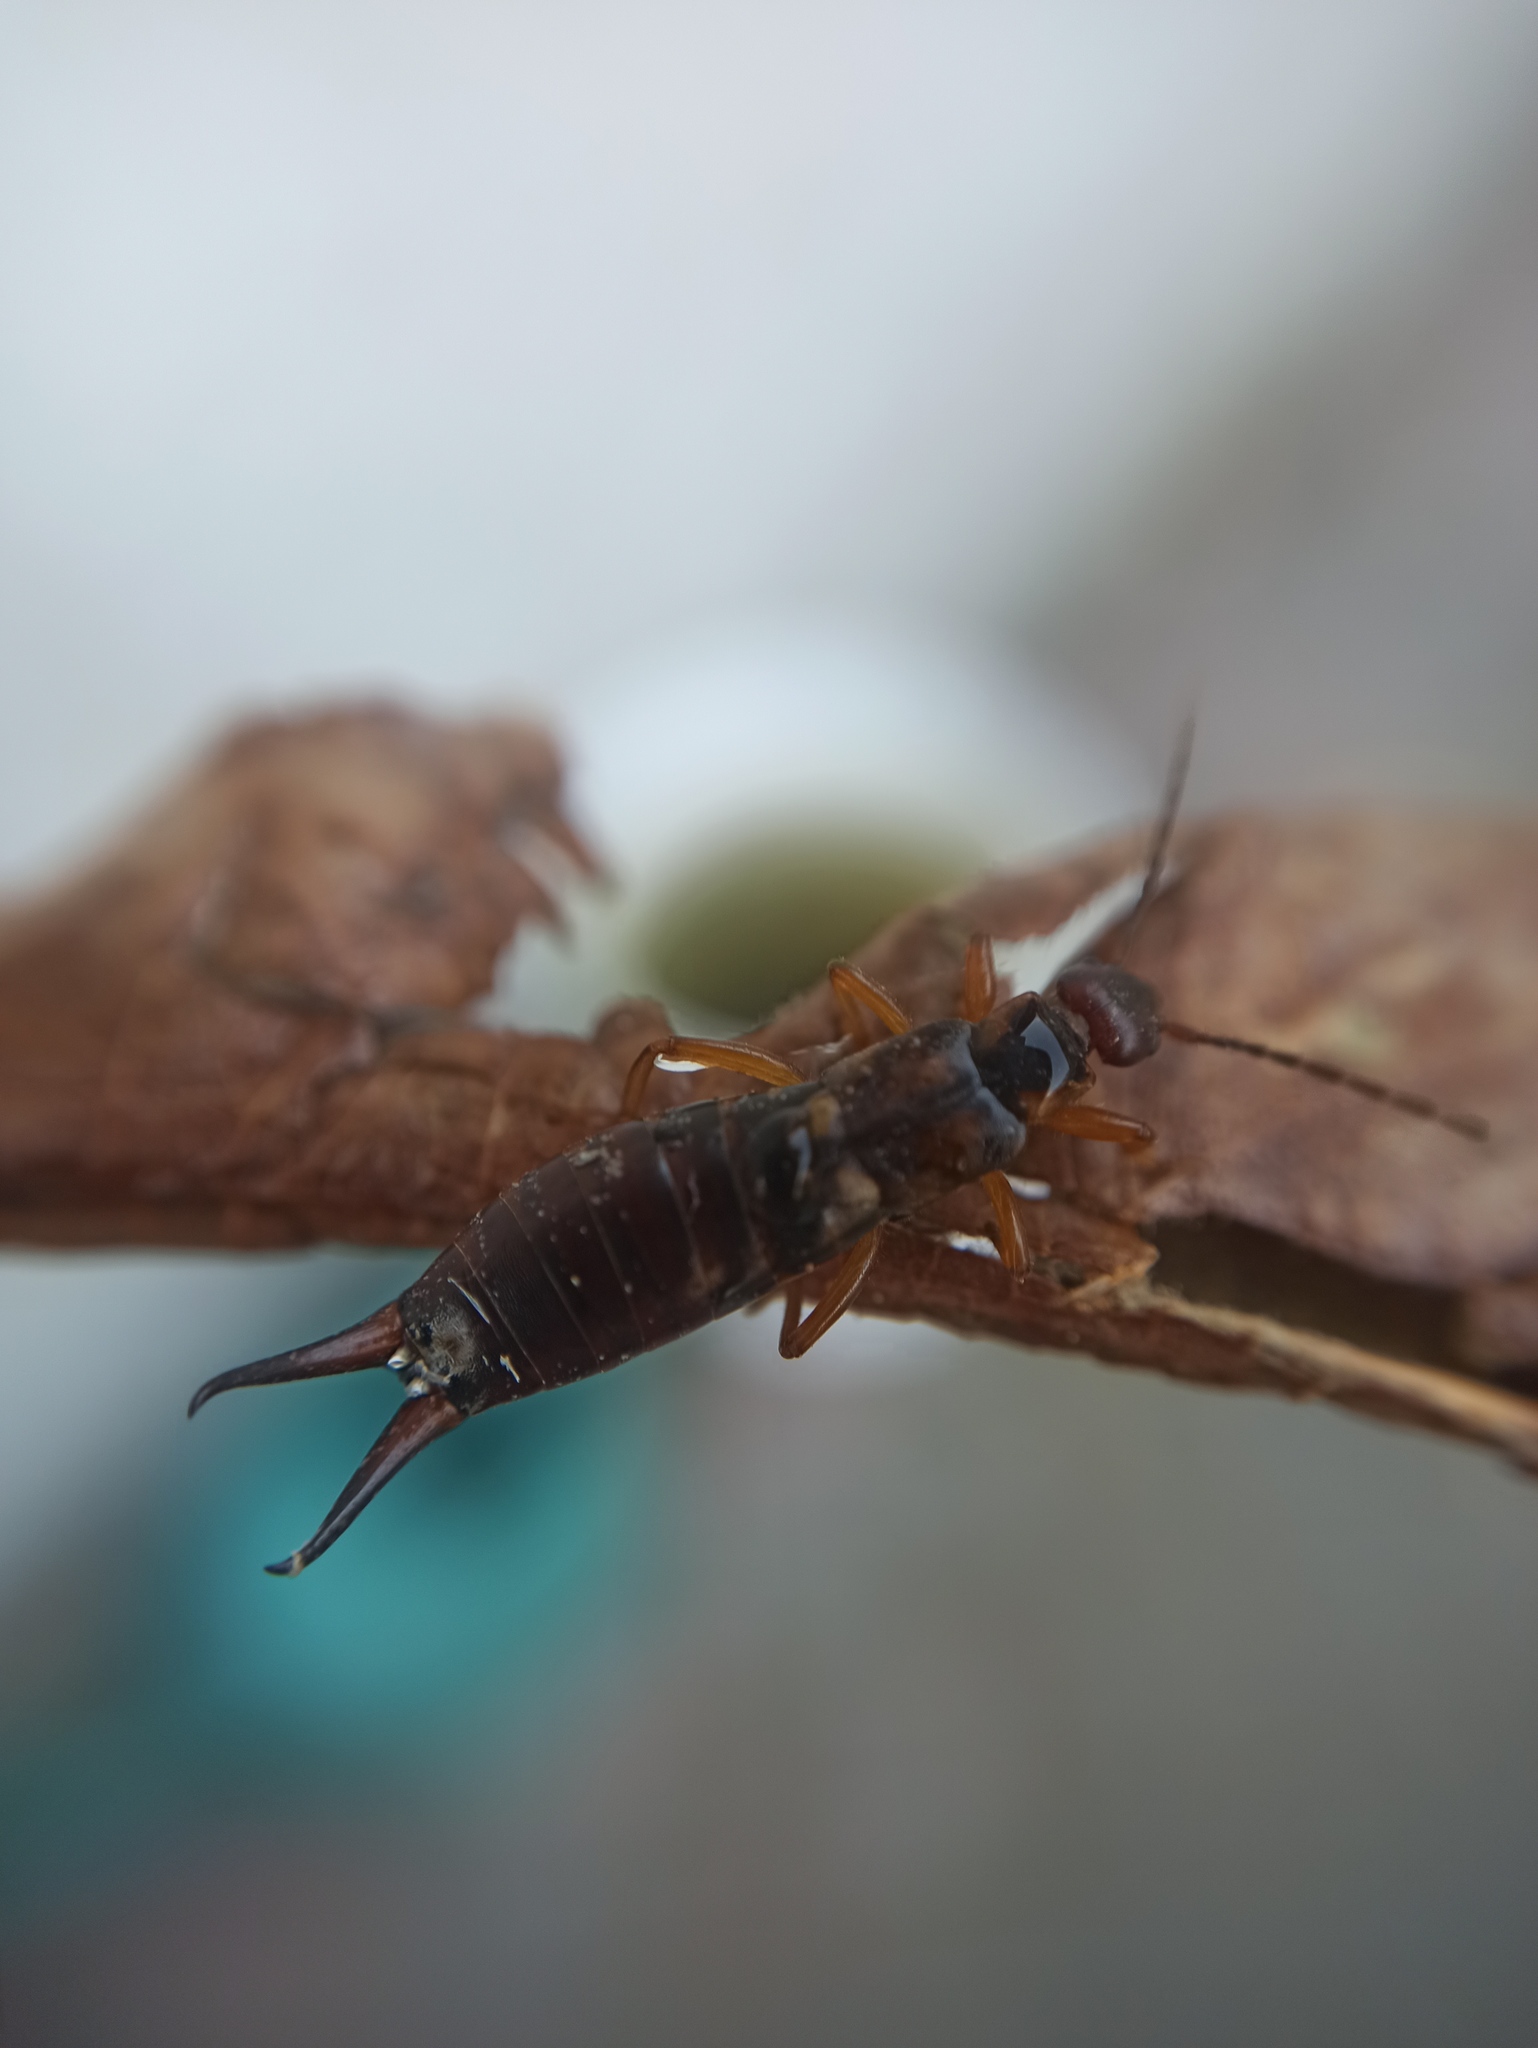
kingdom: Animalia
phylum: Arthropoda
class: Insecta
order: Dermaptera
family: Forficulidae
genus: Forficula
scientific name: Forficula
